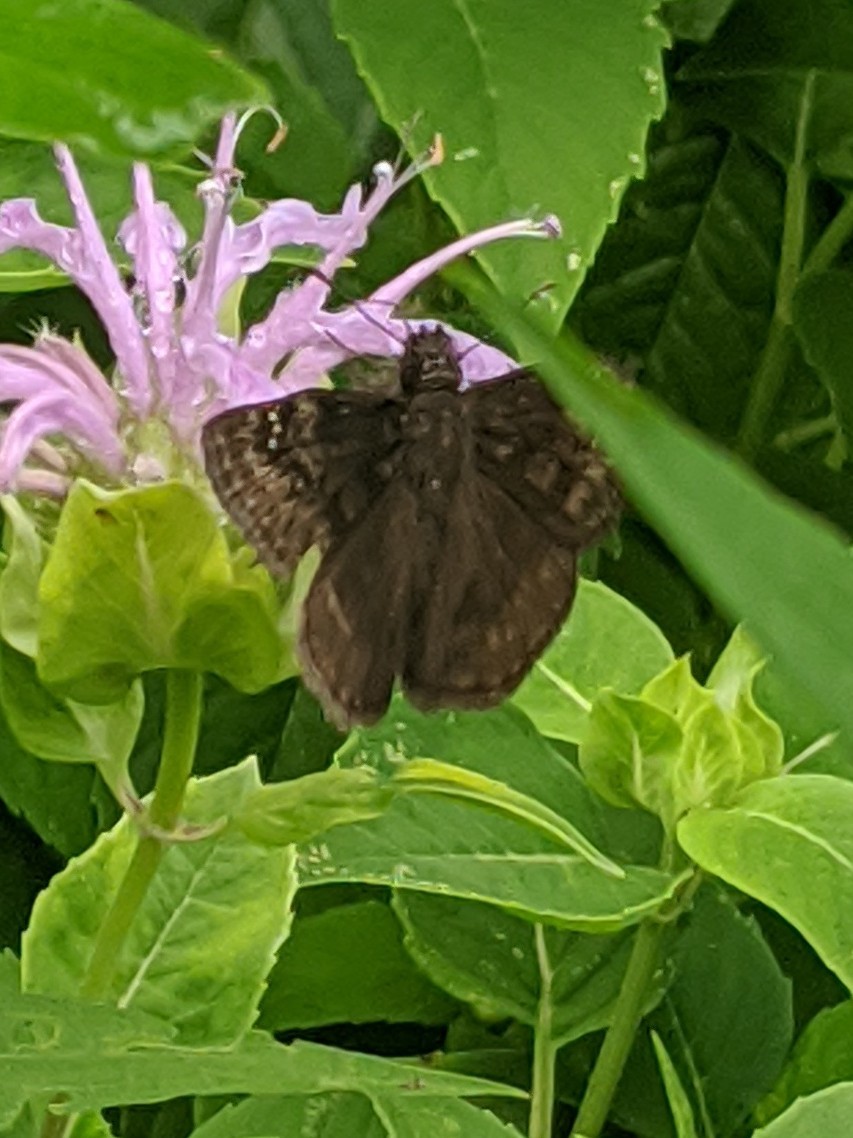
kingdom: Animalia
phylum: Arthropoda
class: Insecta
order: Lepidoptera
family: Hesperiidae
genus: Erynnis
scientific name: Erynnis baptisiae
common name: Wild indigo duskywing
